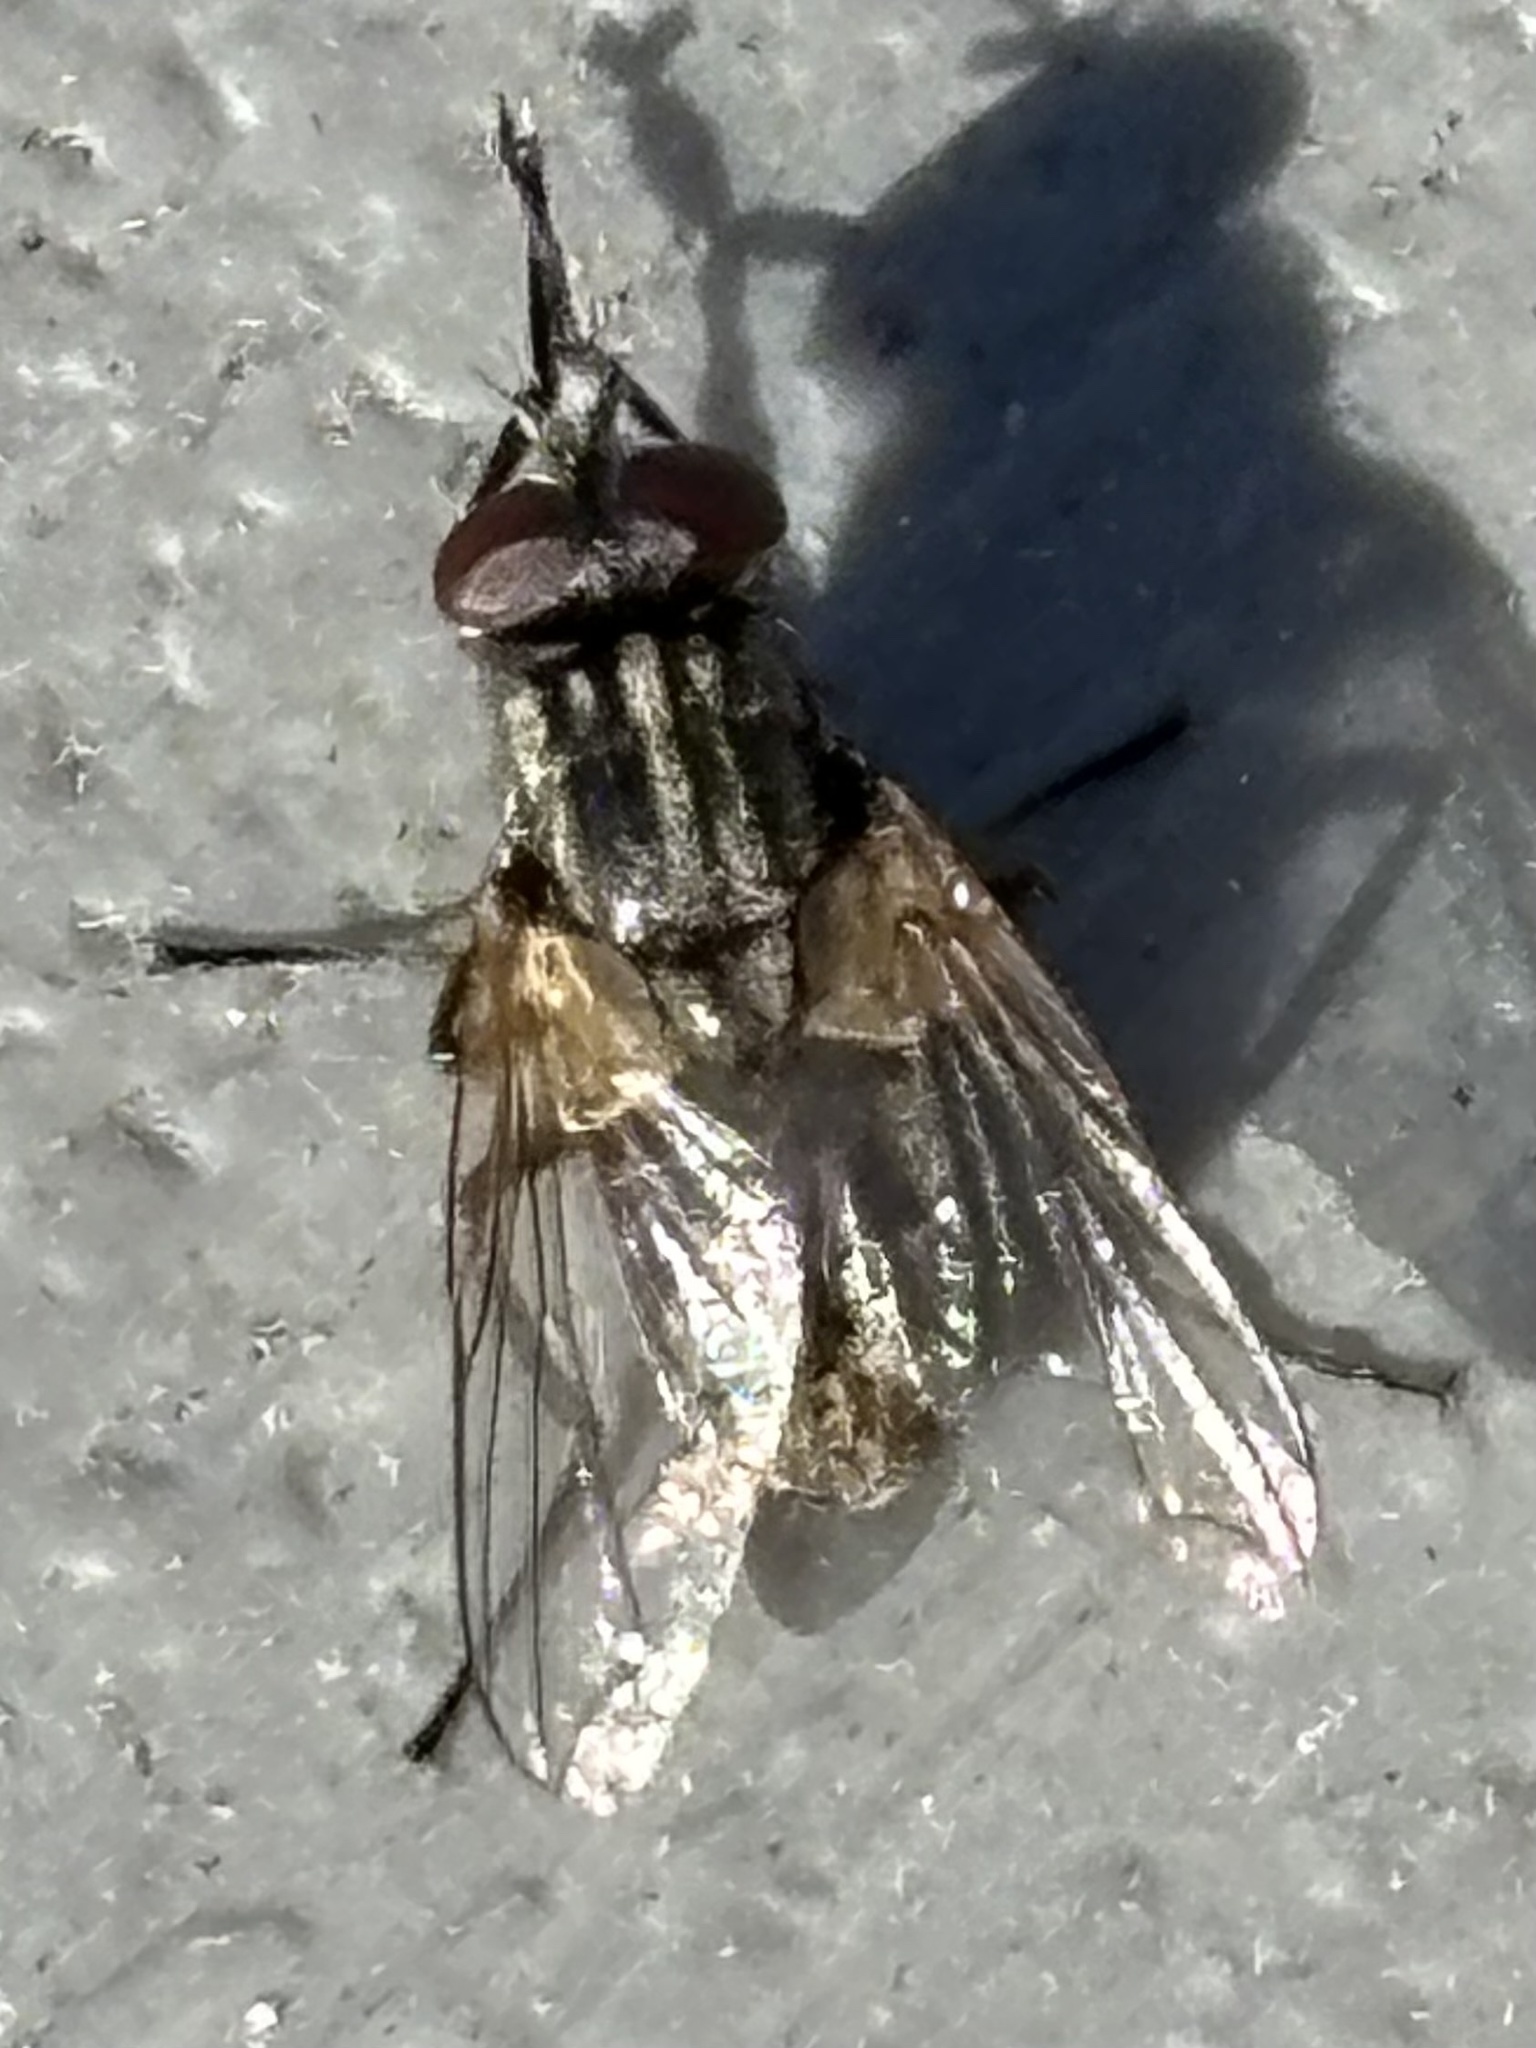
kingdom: Animalia
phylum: Arthropoda
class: Insecta
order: Diptera
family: Muscidae
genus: Musca
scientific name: Musca domestica
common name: House fly
